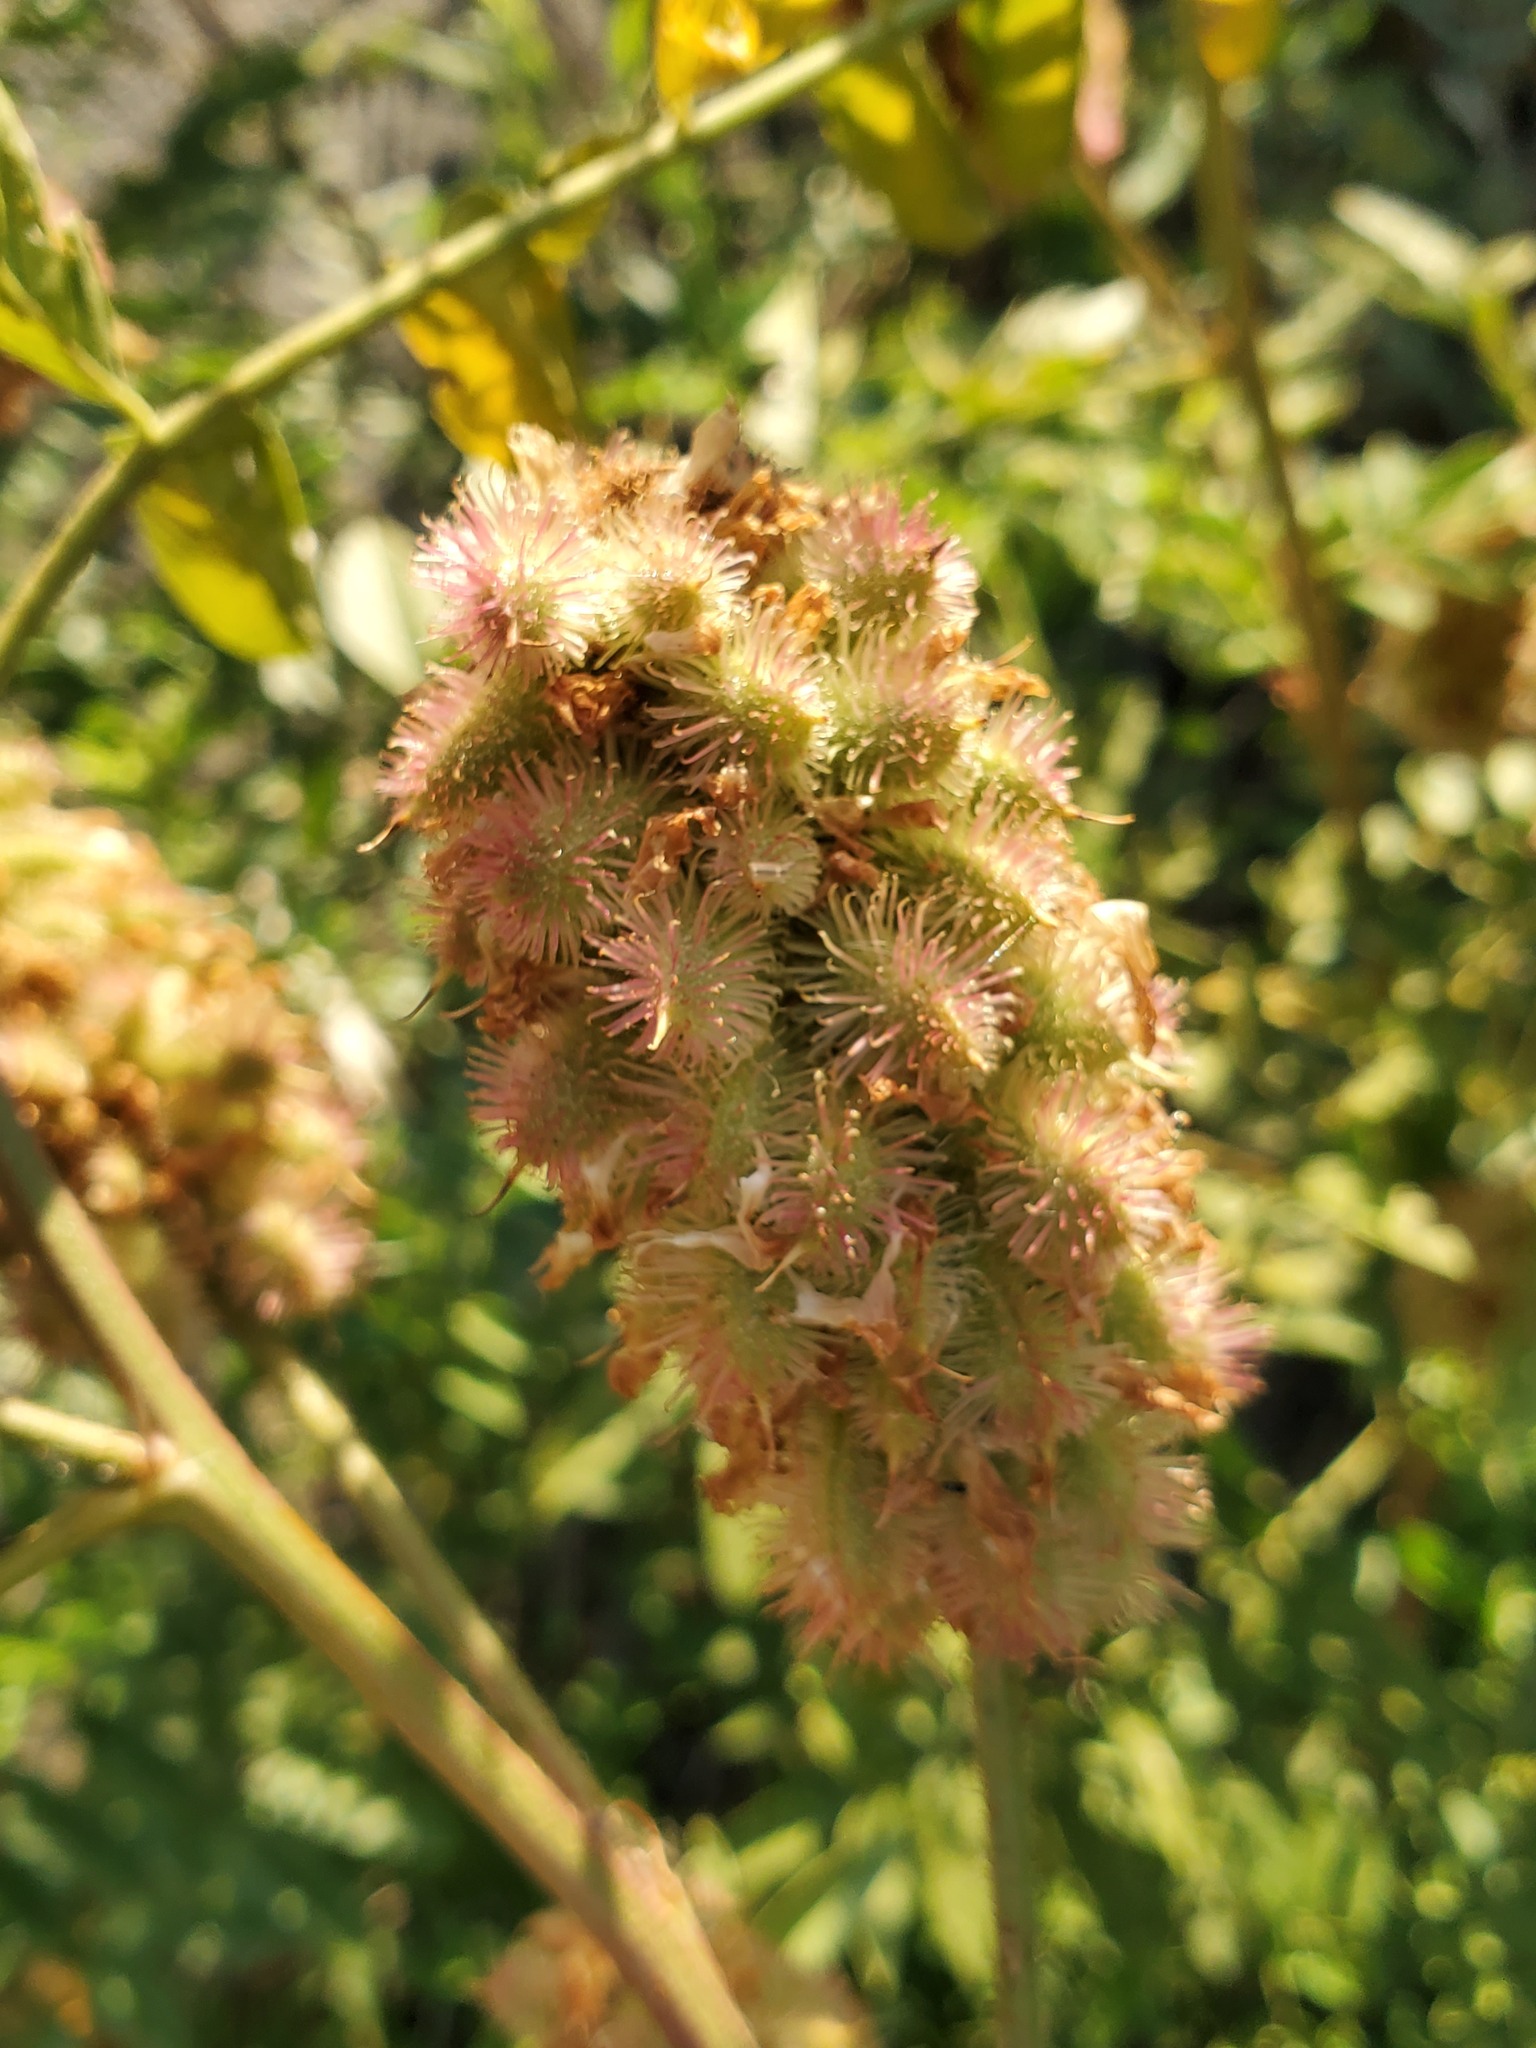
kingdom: Plantae
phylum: Tracheophyta
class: Magnoliopsida
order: Fabales
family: Fabaceae
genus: Glycyrrhiza
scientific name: Glycyrrhiza lepidota
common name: American liquorice
